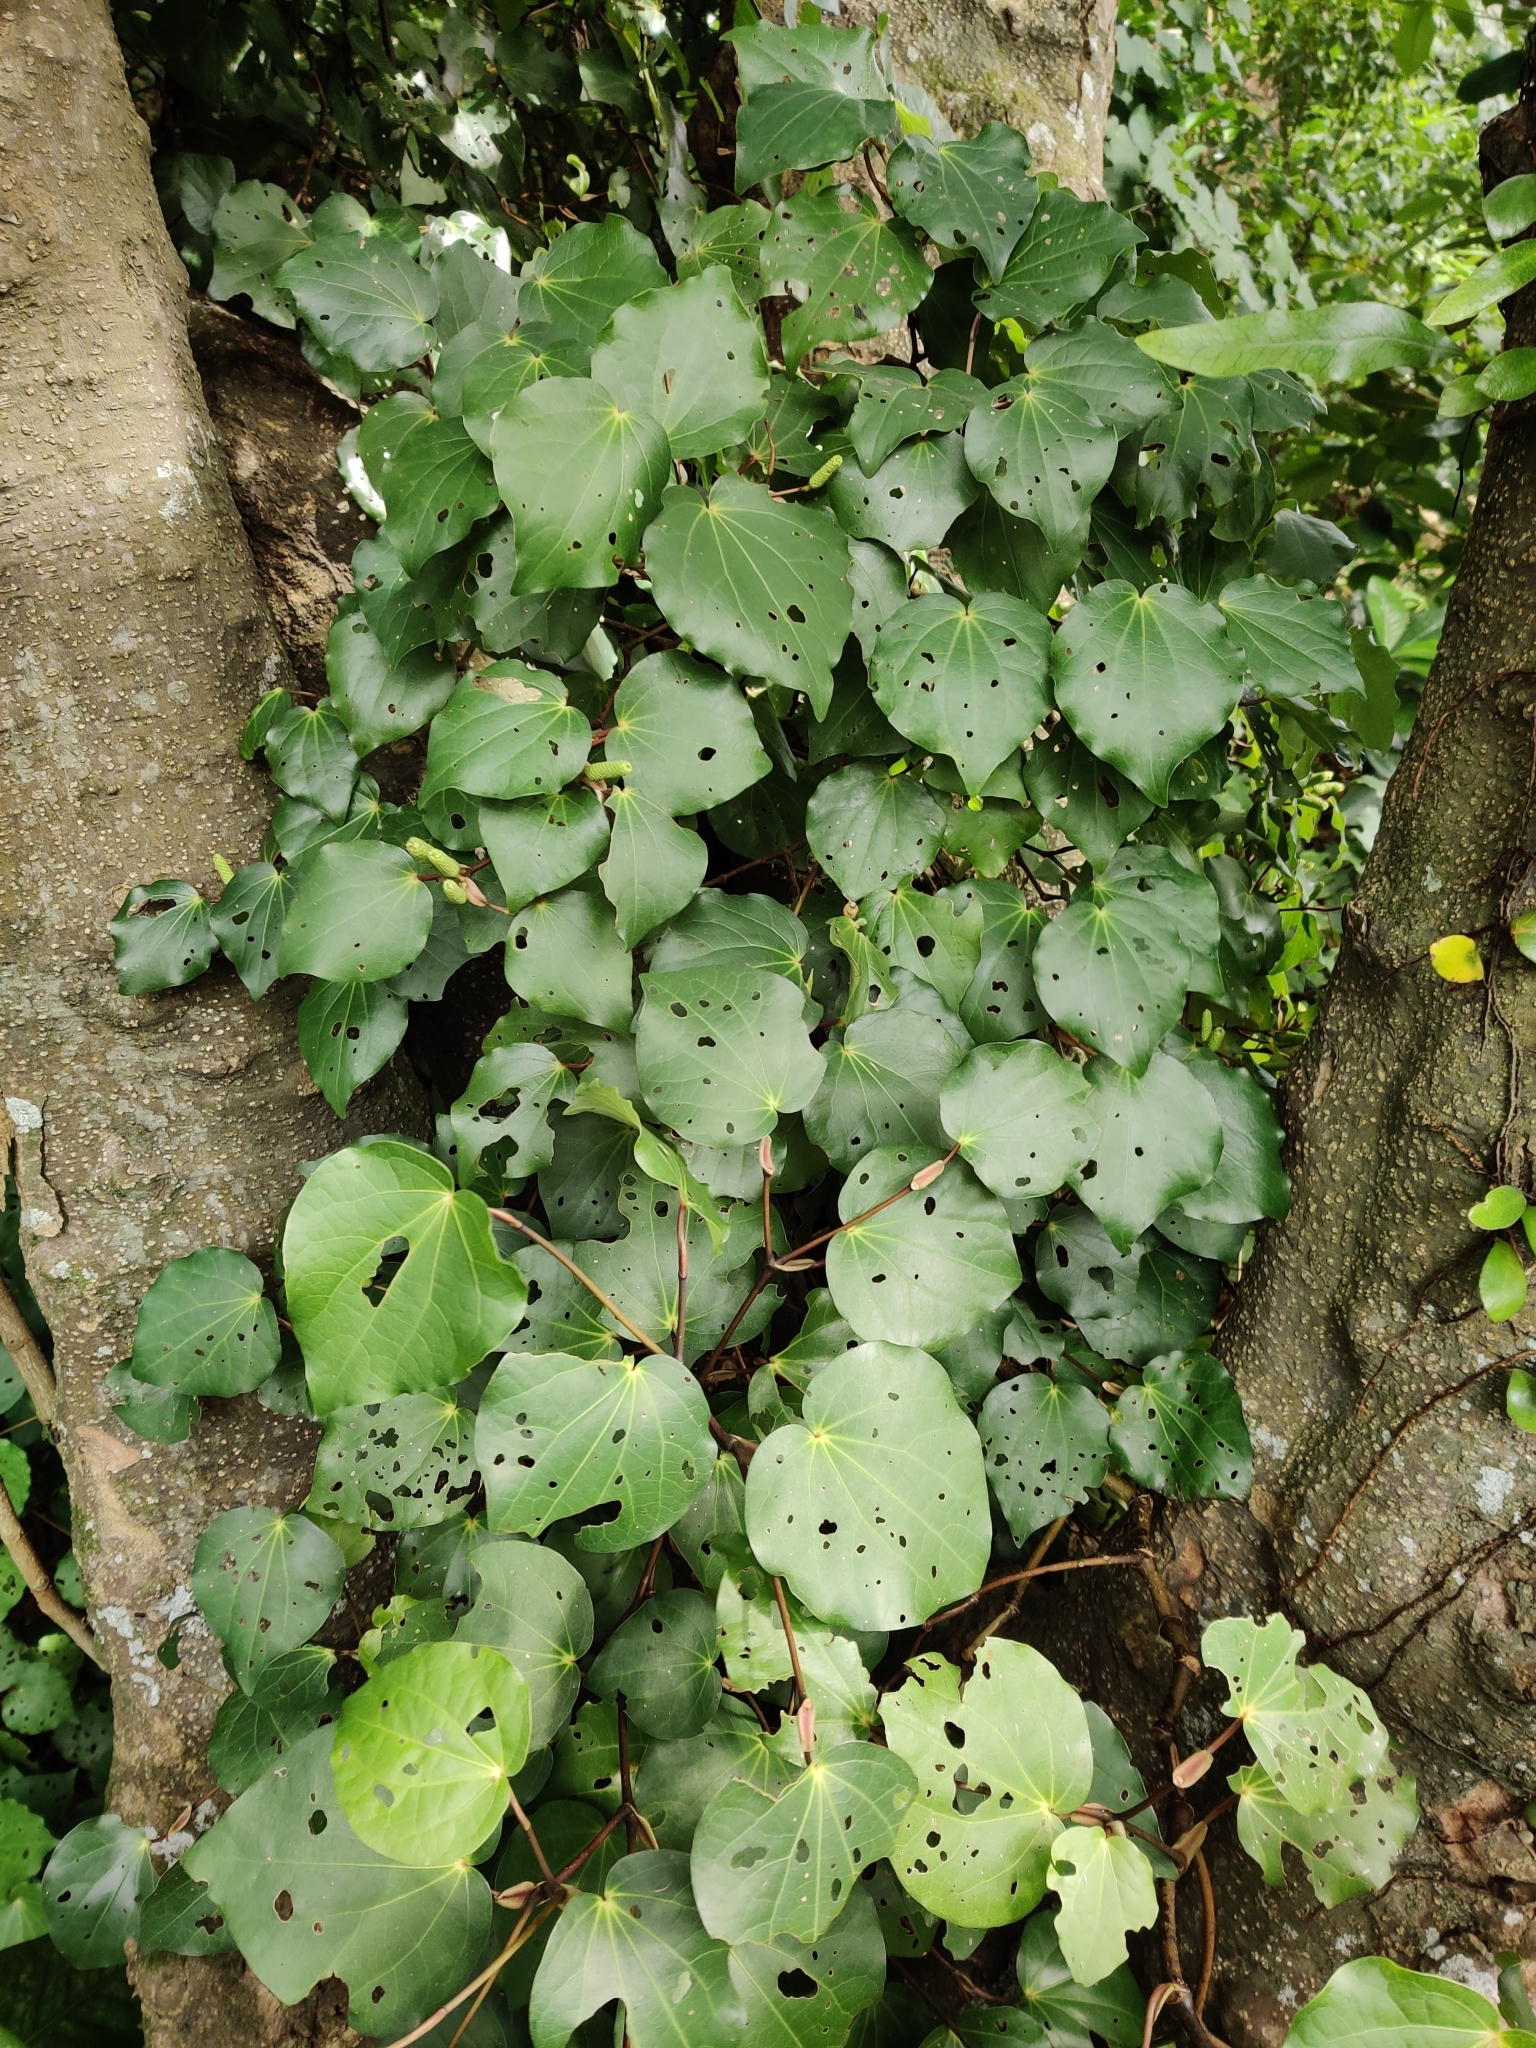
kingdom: Plantae
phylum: Tracheophyta
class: Magnoliopsida
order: Piperales
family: Piperaceae
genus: Macropiper
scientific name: Macropiper excelsum
